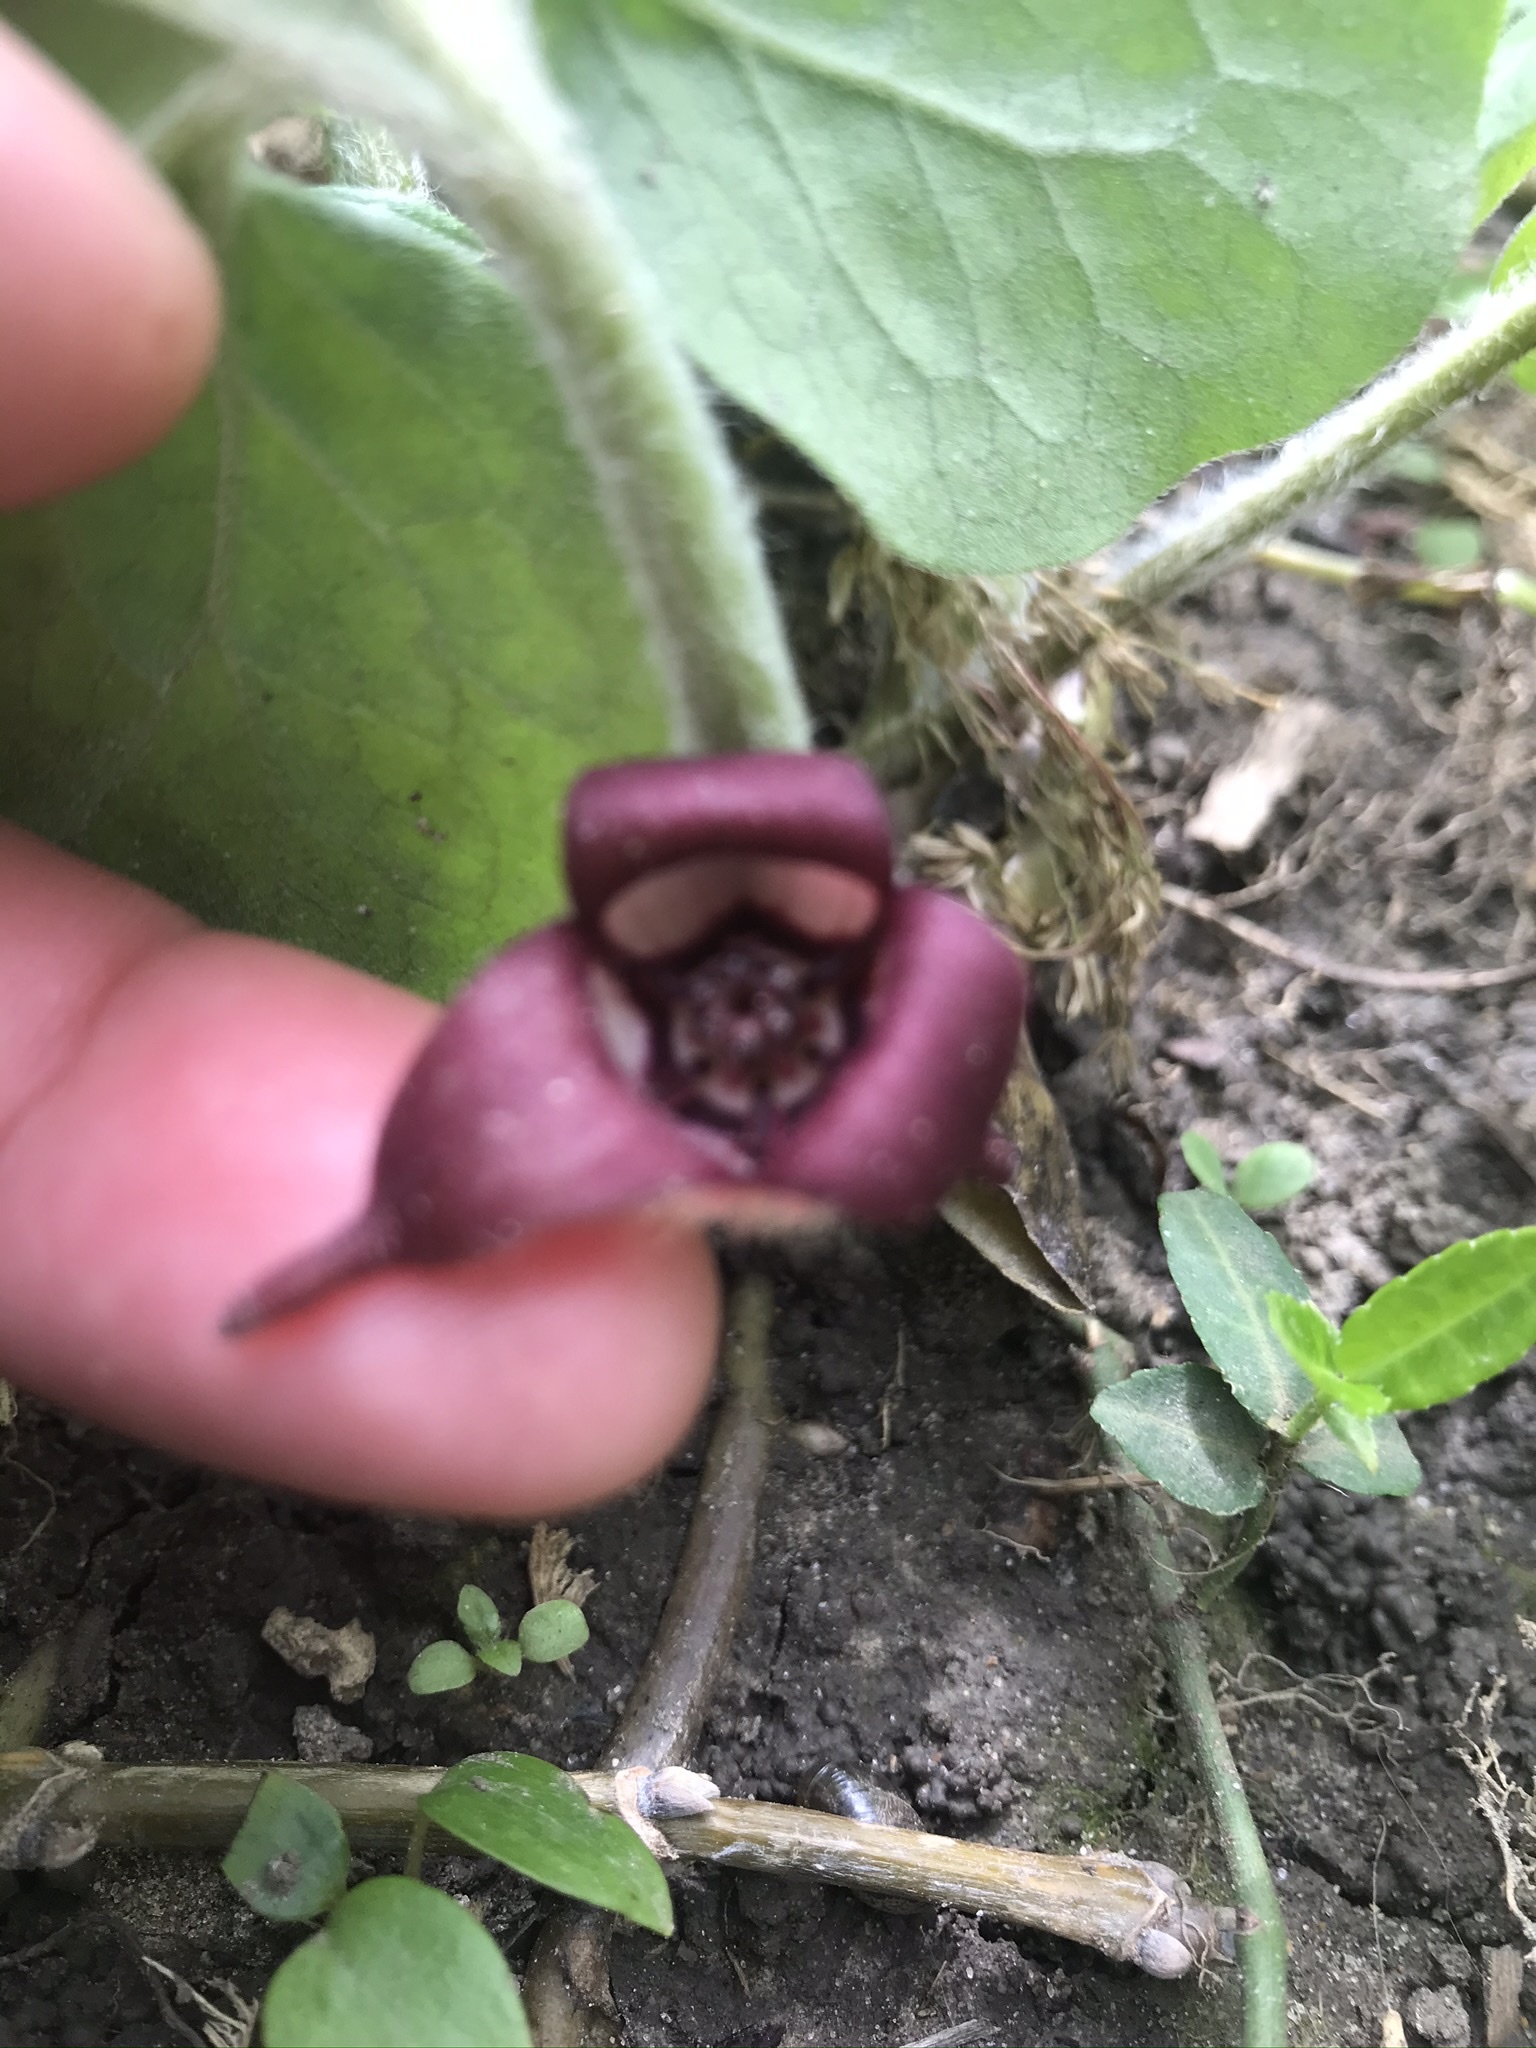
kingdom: Plantae
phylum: Tracheophyta
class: Magnoliopsida
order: Piperales
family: Aristolochiaceae
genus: Asarum
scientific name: Asarum canadense
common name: Wild ginger
